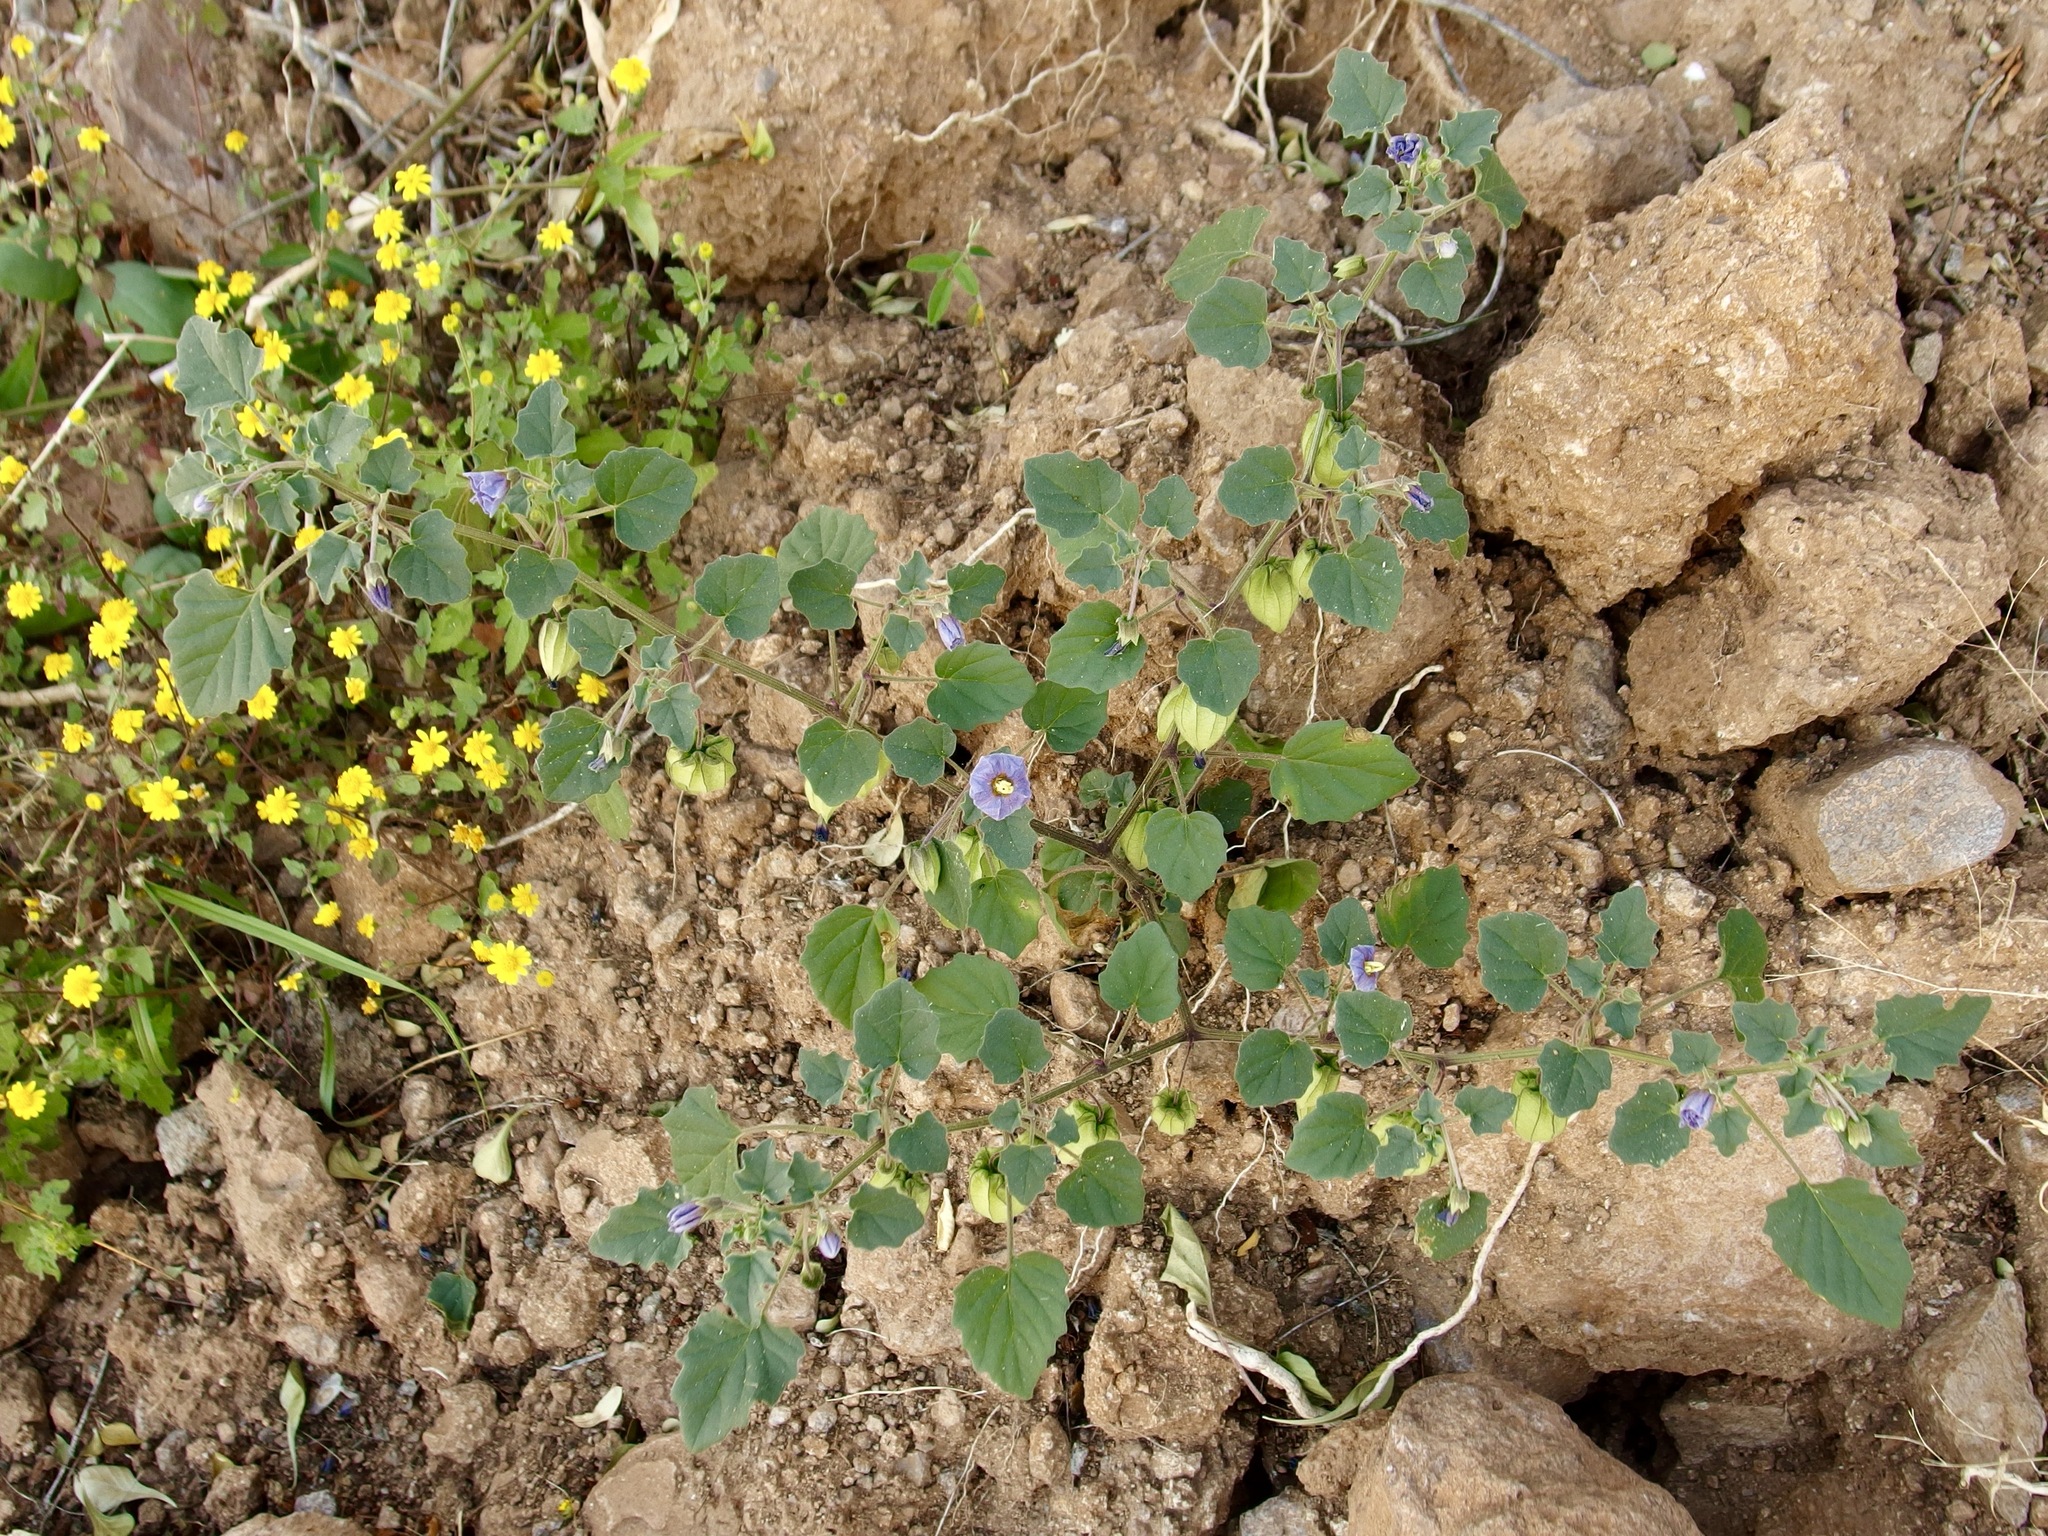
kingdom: Plantae
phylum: Tracheophyta
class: Magnoliopsida
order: Solanales
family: Solanaceae
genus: Physalis
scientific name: Physalis purpurea
